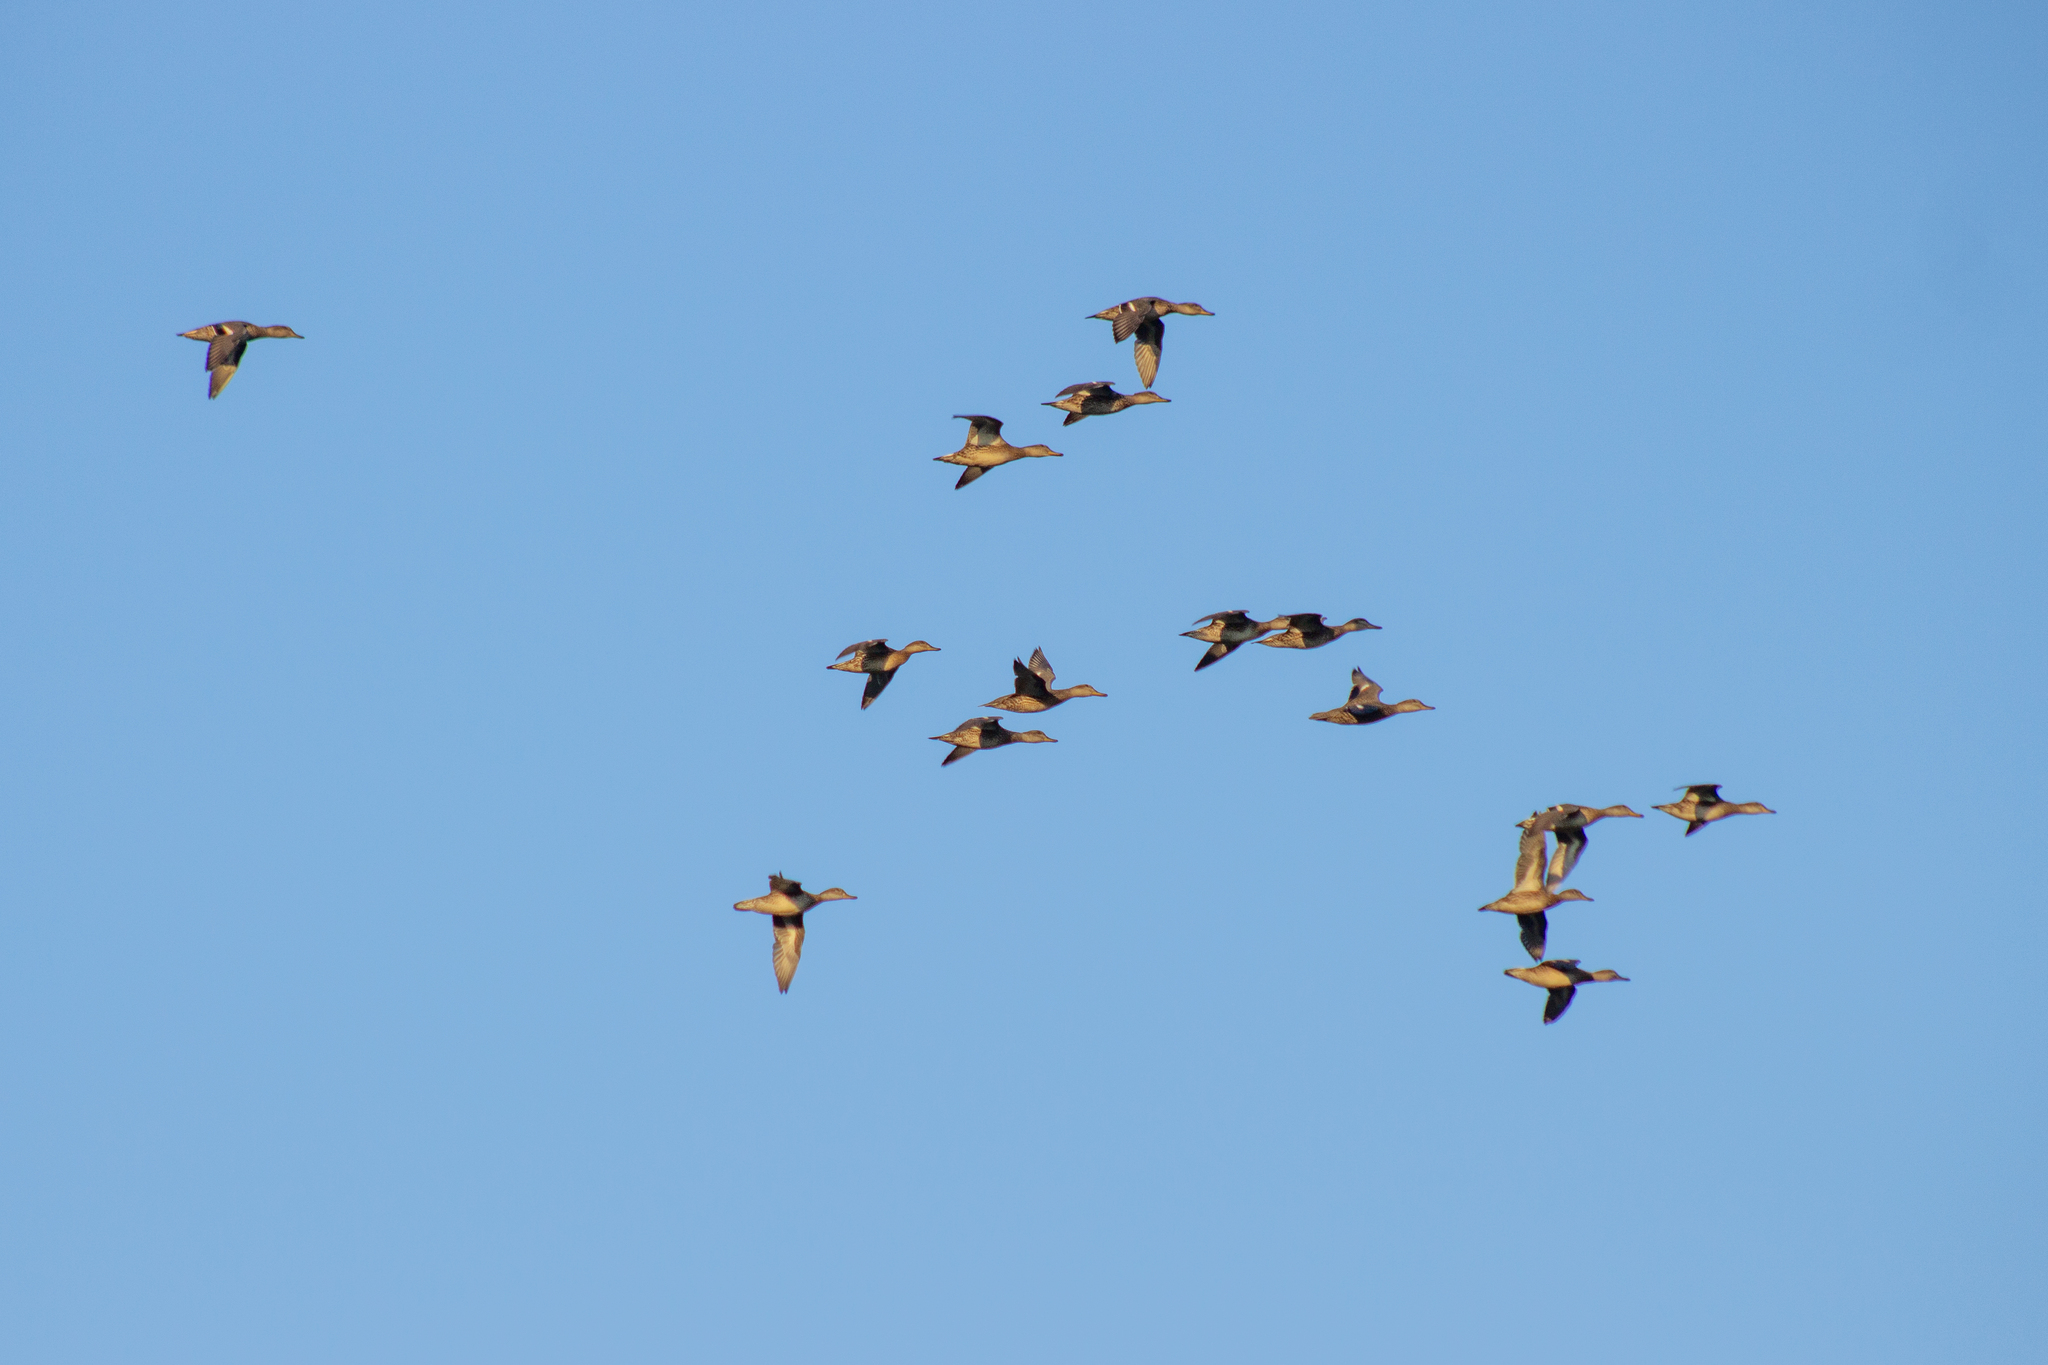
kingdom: Animalia
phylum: Chordata
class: Aves
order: Anseriformes
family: Anatidae
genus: Anas
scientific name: Anas crecca
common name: Eurasian teal
